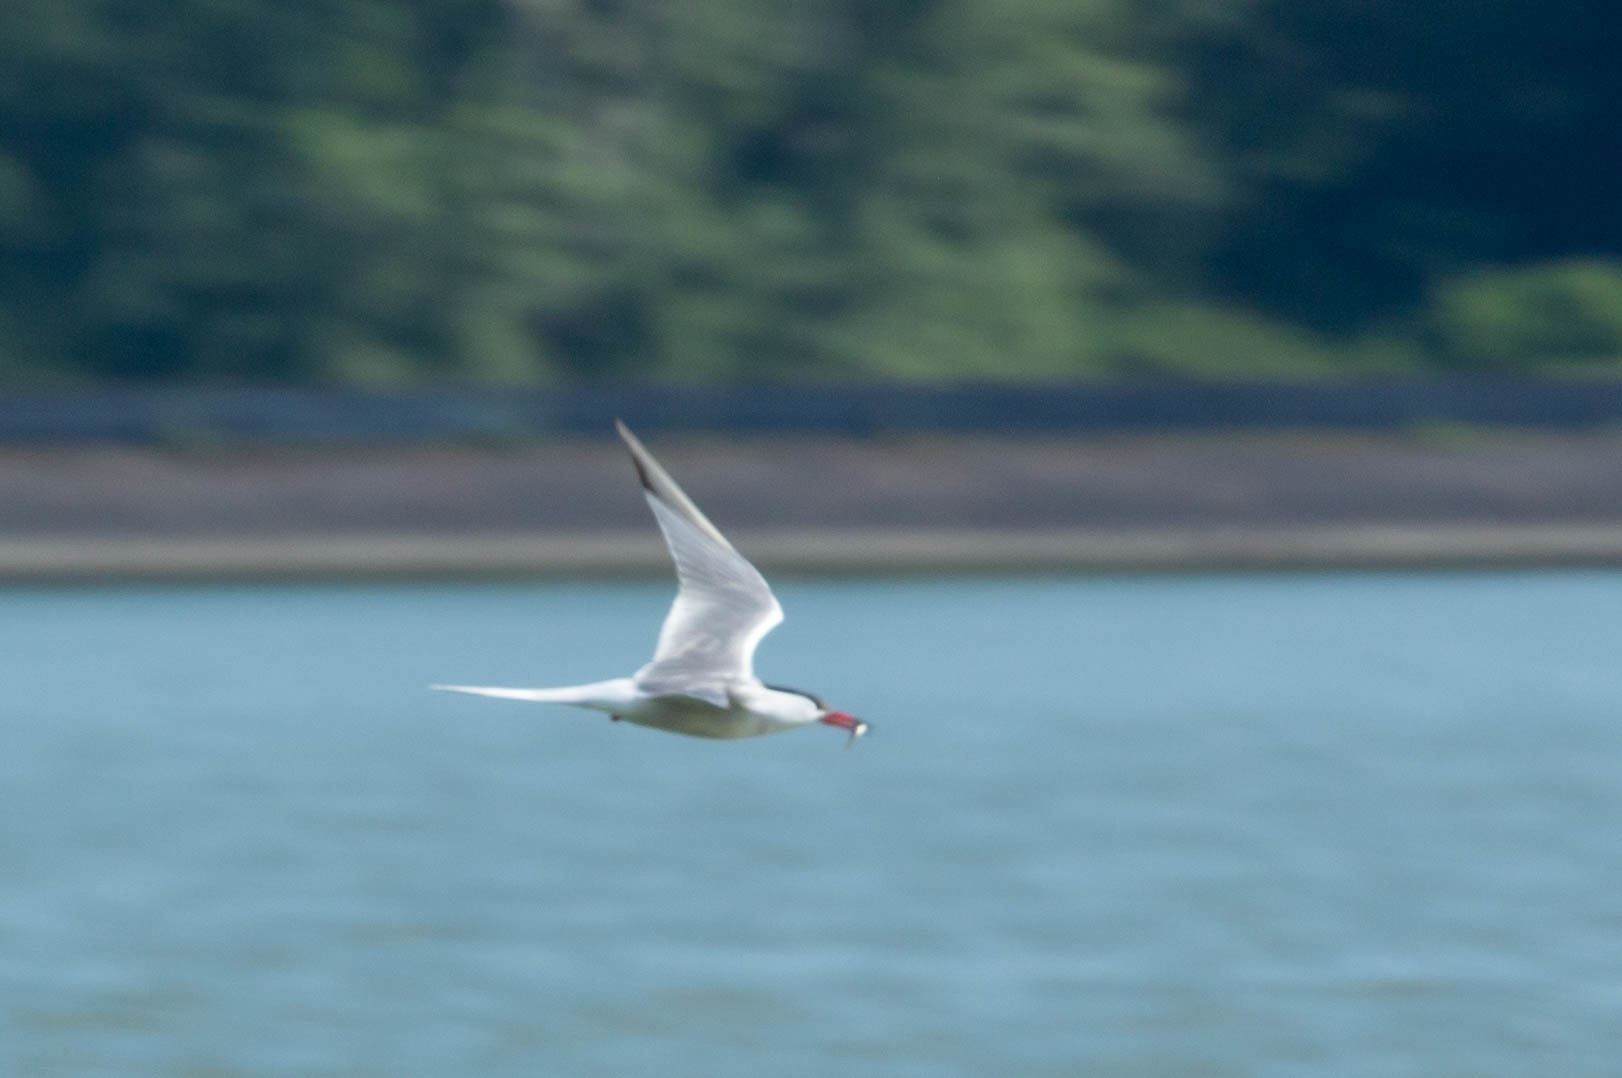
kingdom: Animalia
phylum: Chordata
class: Aves
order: Charadriiformes
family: Laridae
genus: Sterna
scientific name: Sterna hirundo
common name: Common tern
